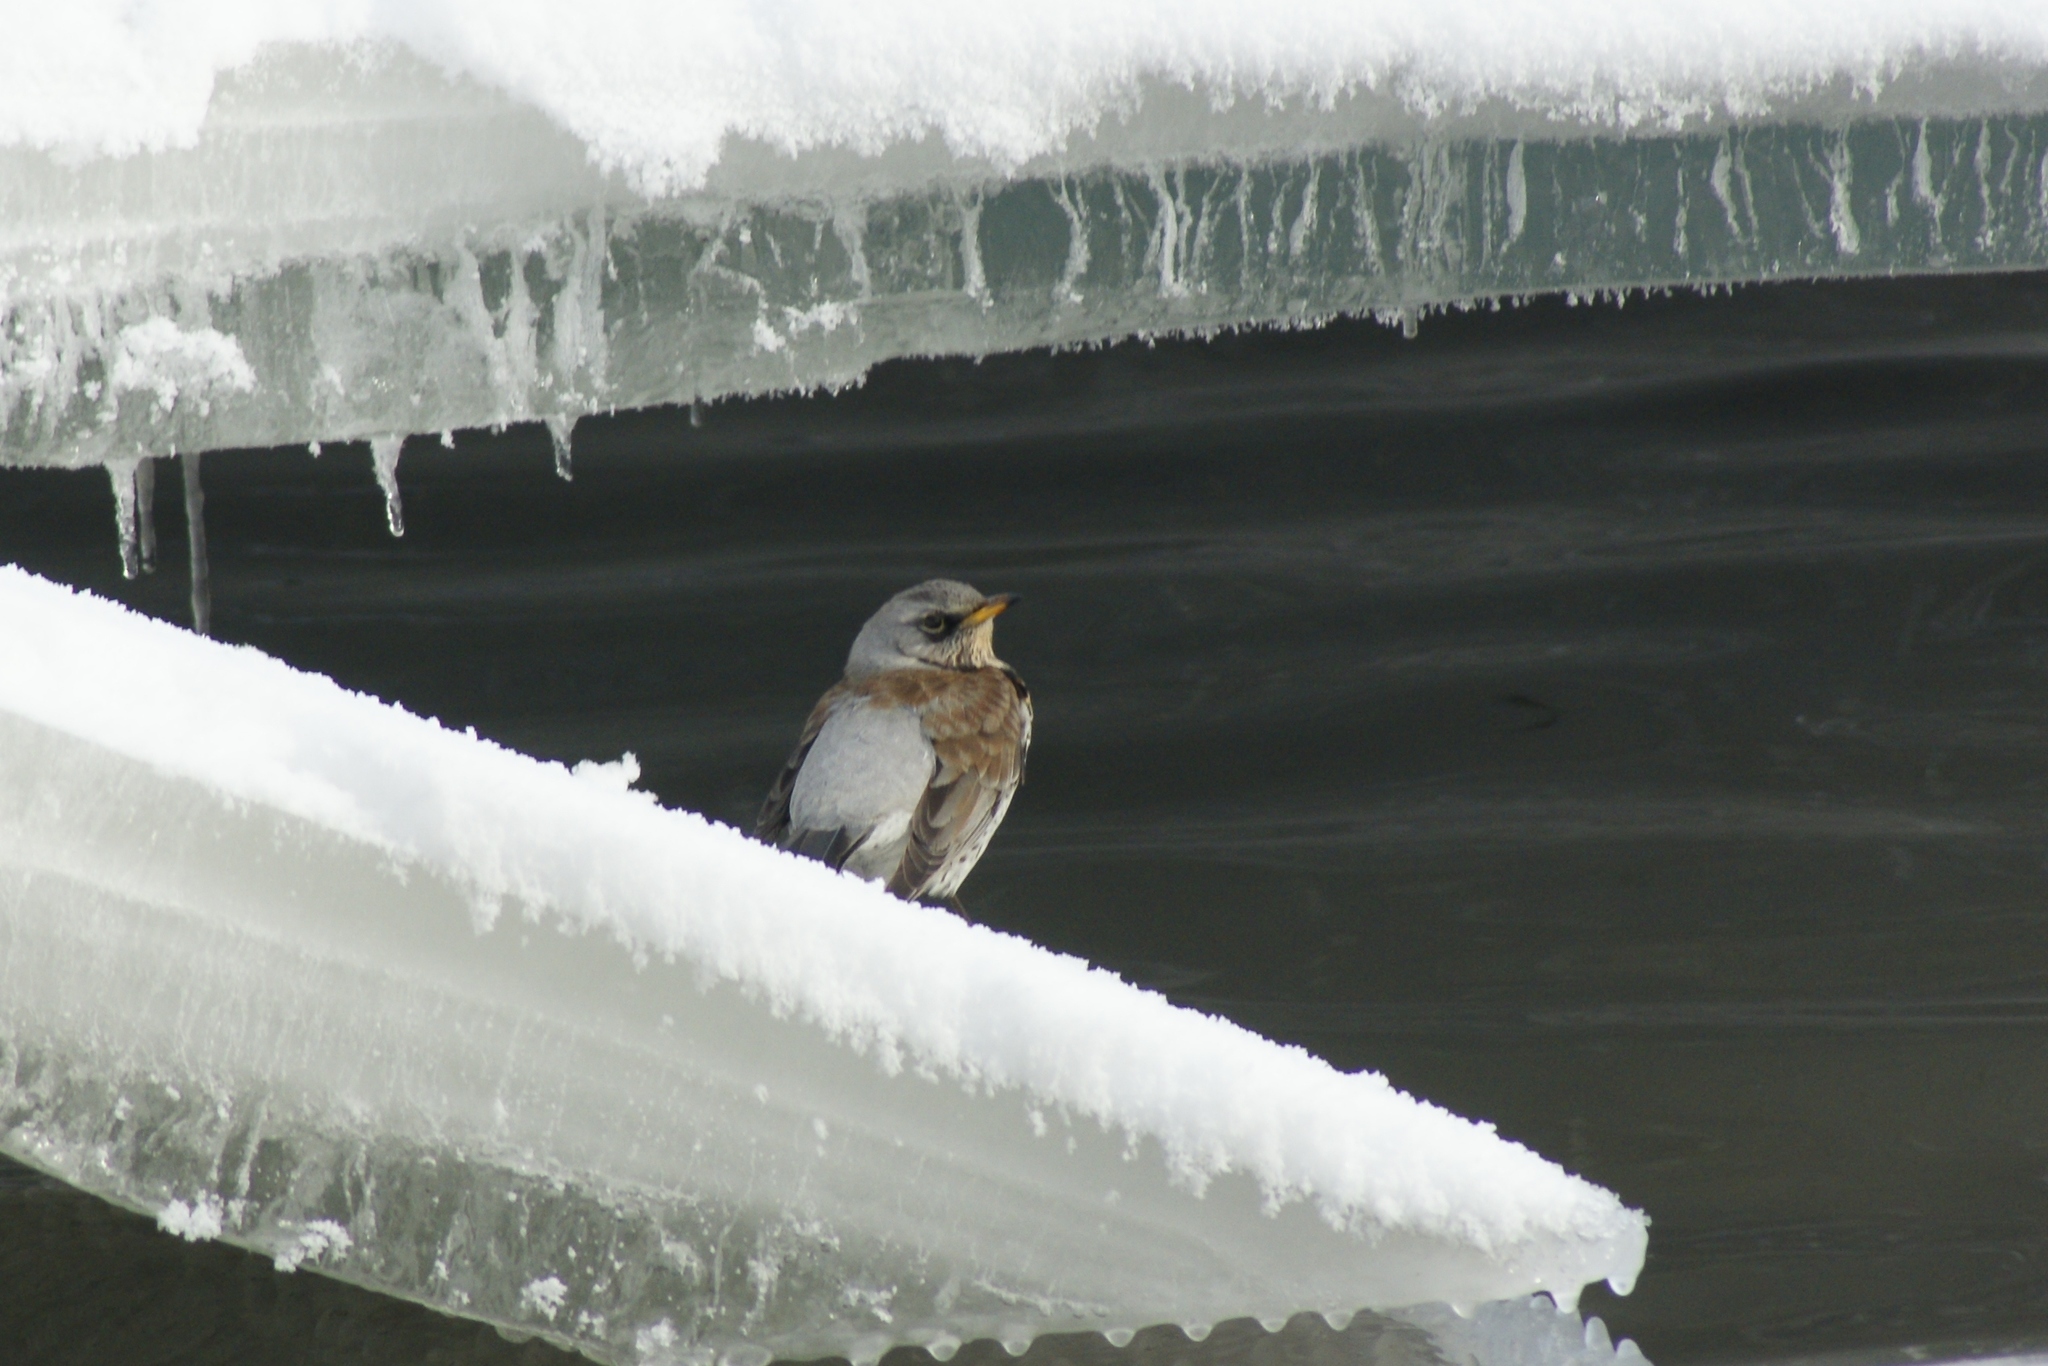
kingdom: Animalia
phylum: Chordata
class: Aves
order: Passeriformes
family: Turdidae
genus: Turdus
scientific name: Turdus pilaris
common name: Fieldfare
